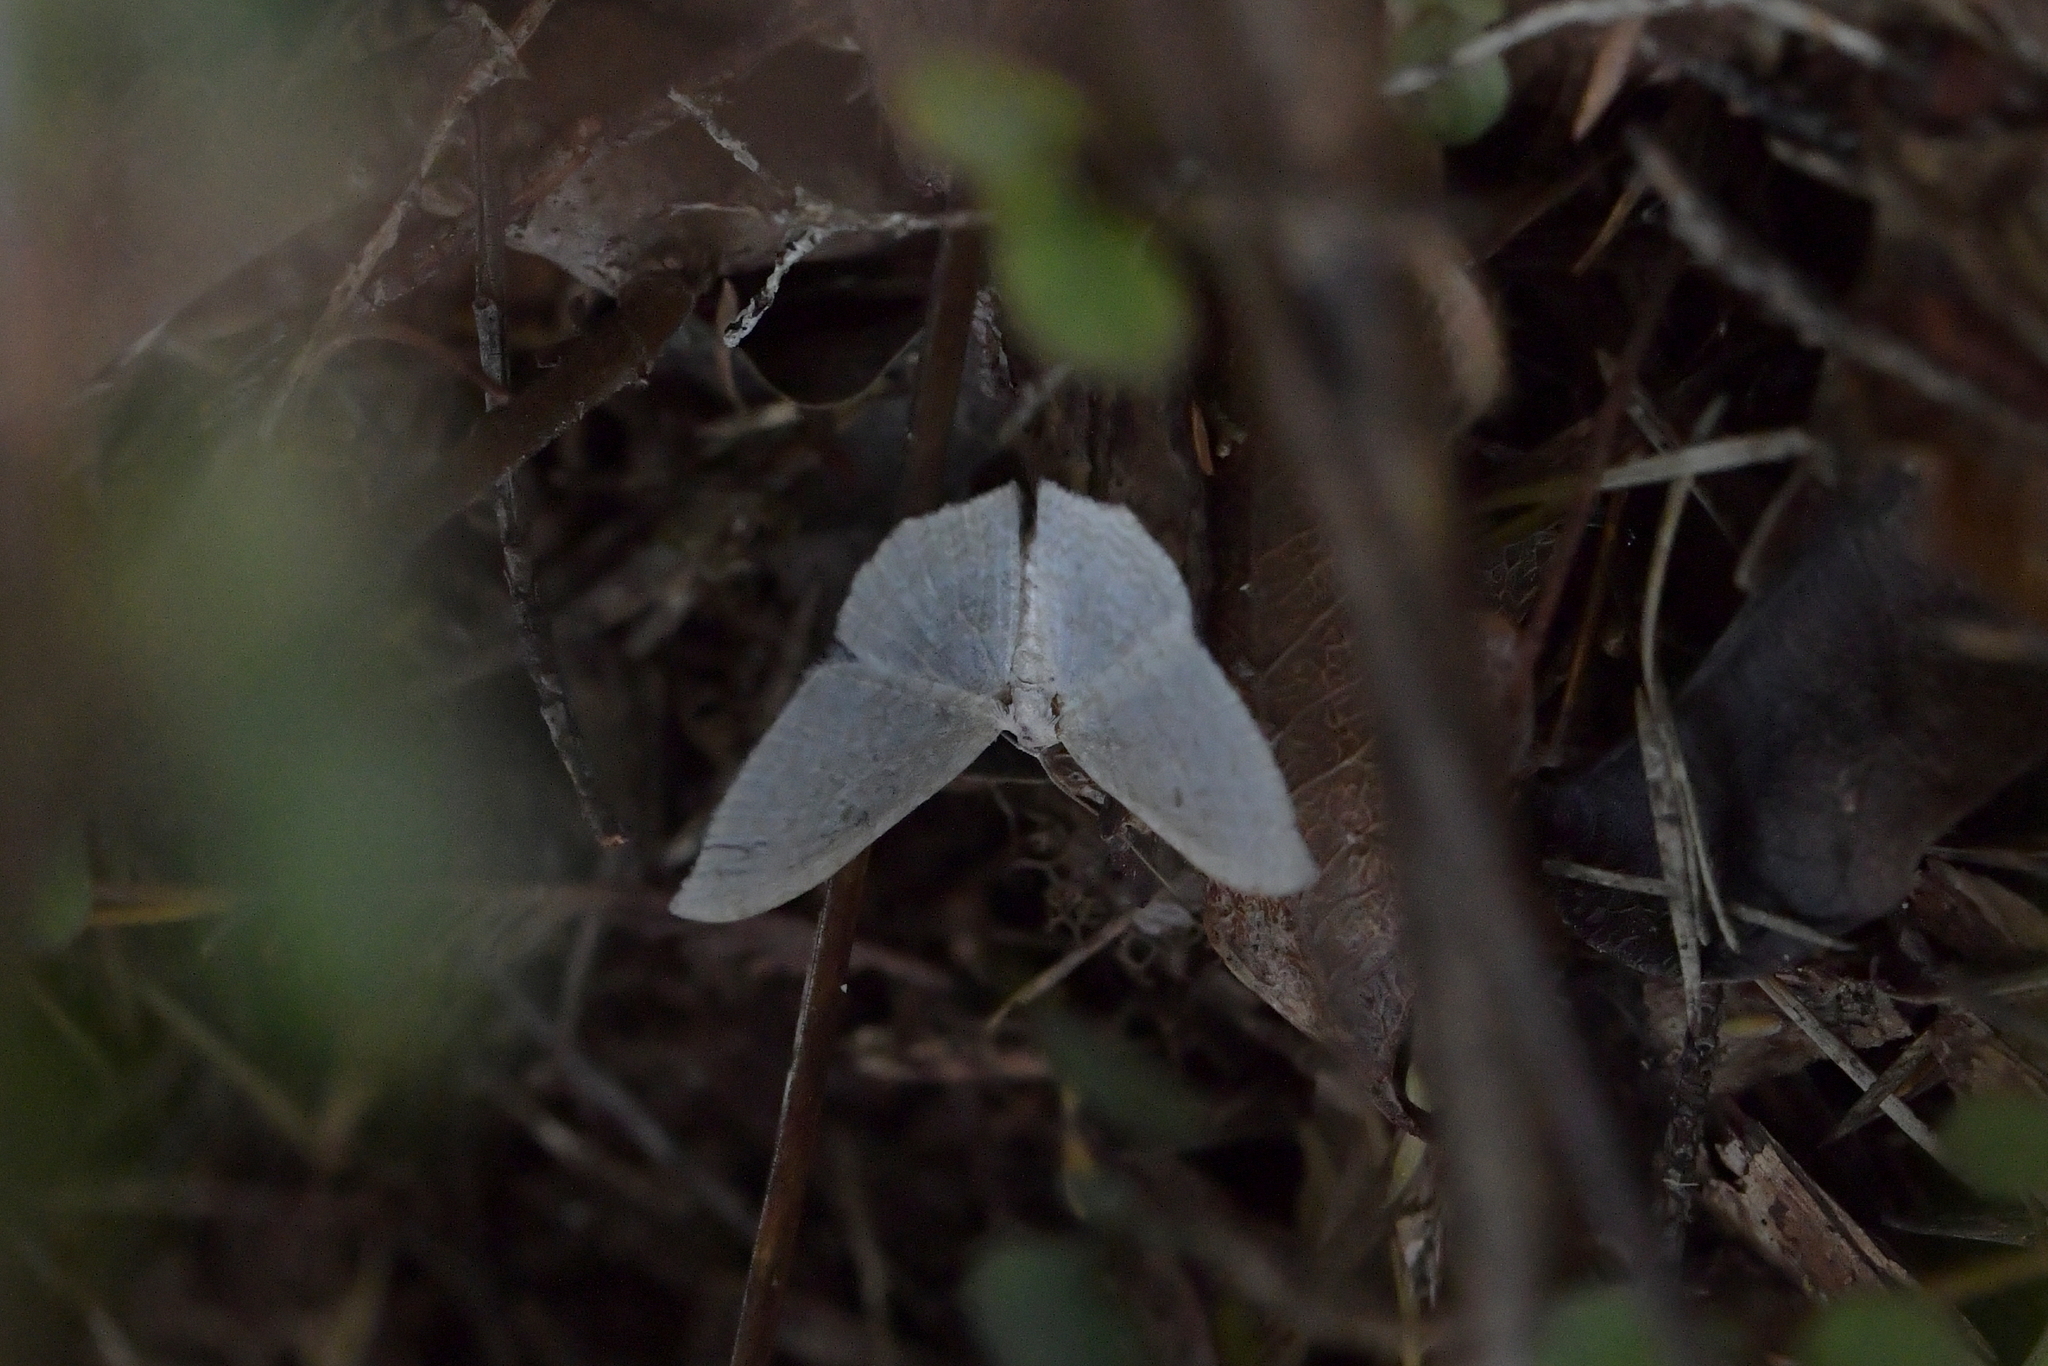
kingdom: Animalia
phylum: Arthropoda
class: Insecta
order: Lepidoptera
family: Geometridae
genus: Poecilasthena
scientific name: Poecilasthena pulchraria
